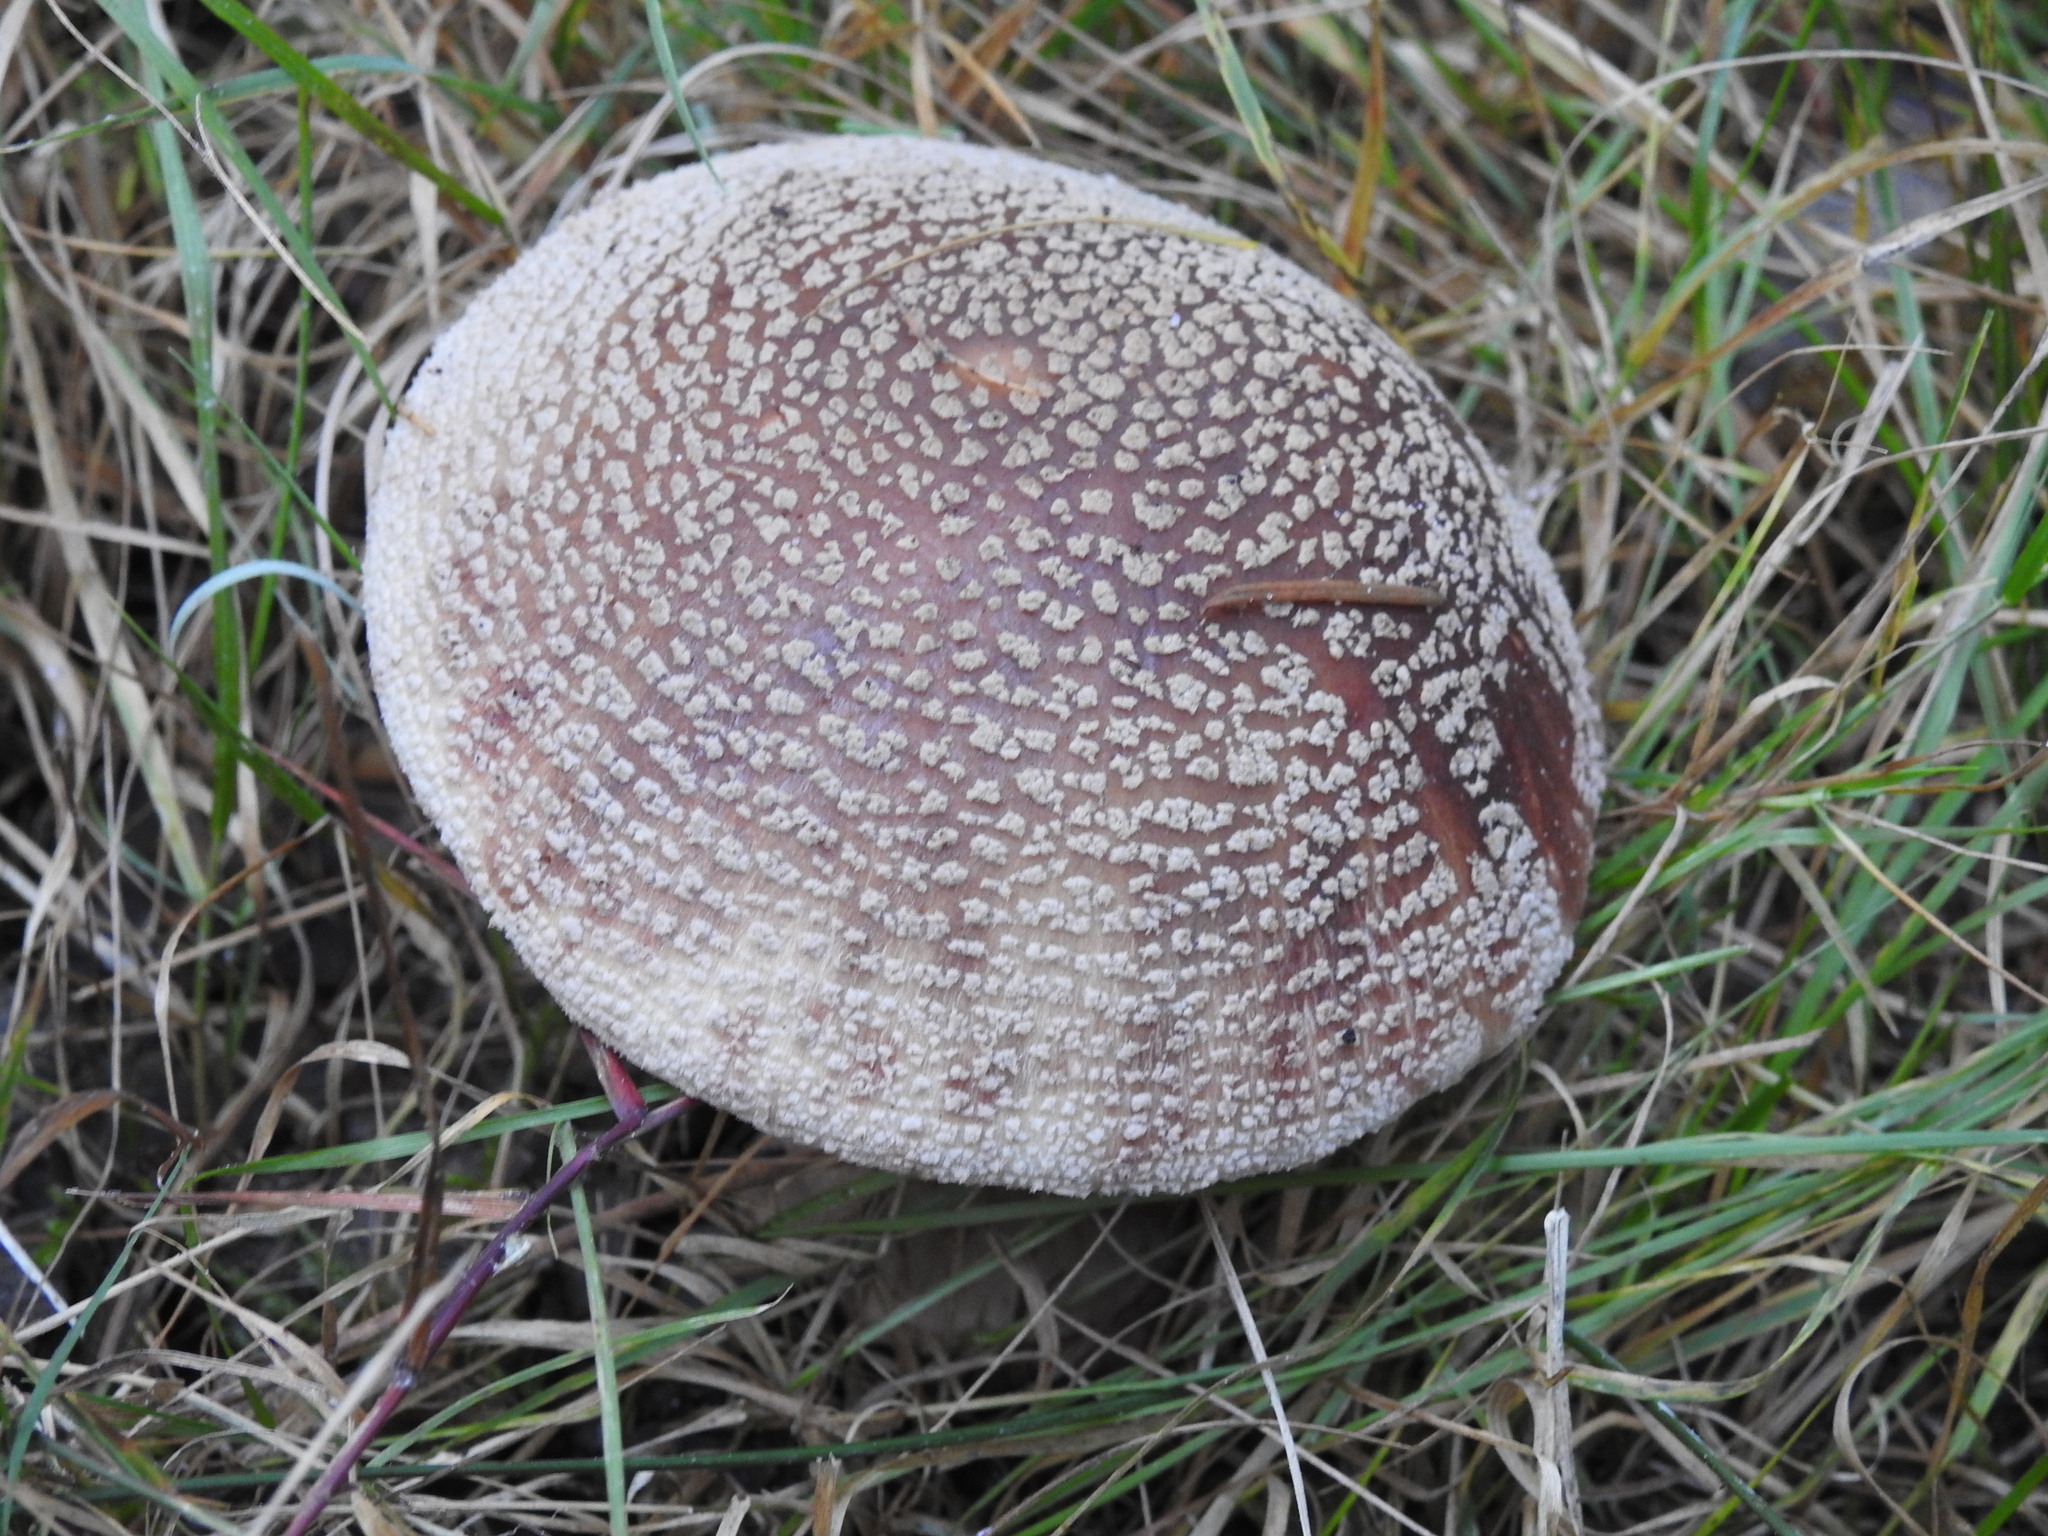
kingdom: Fungi
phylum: Basidiomycota
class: Agaricomycetes
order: Agaricales
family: Amanitaceae
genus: Amanita
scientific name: Amanita rubescens
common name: Blusher
